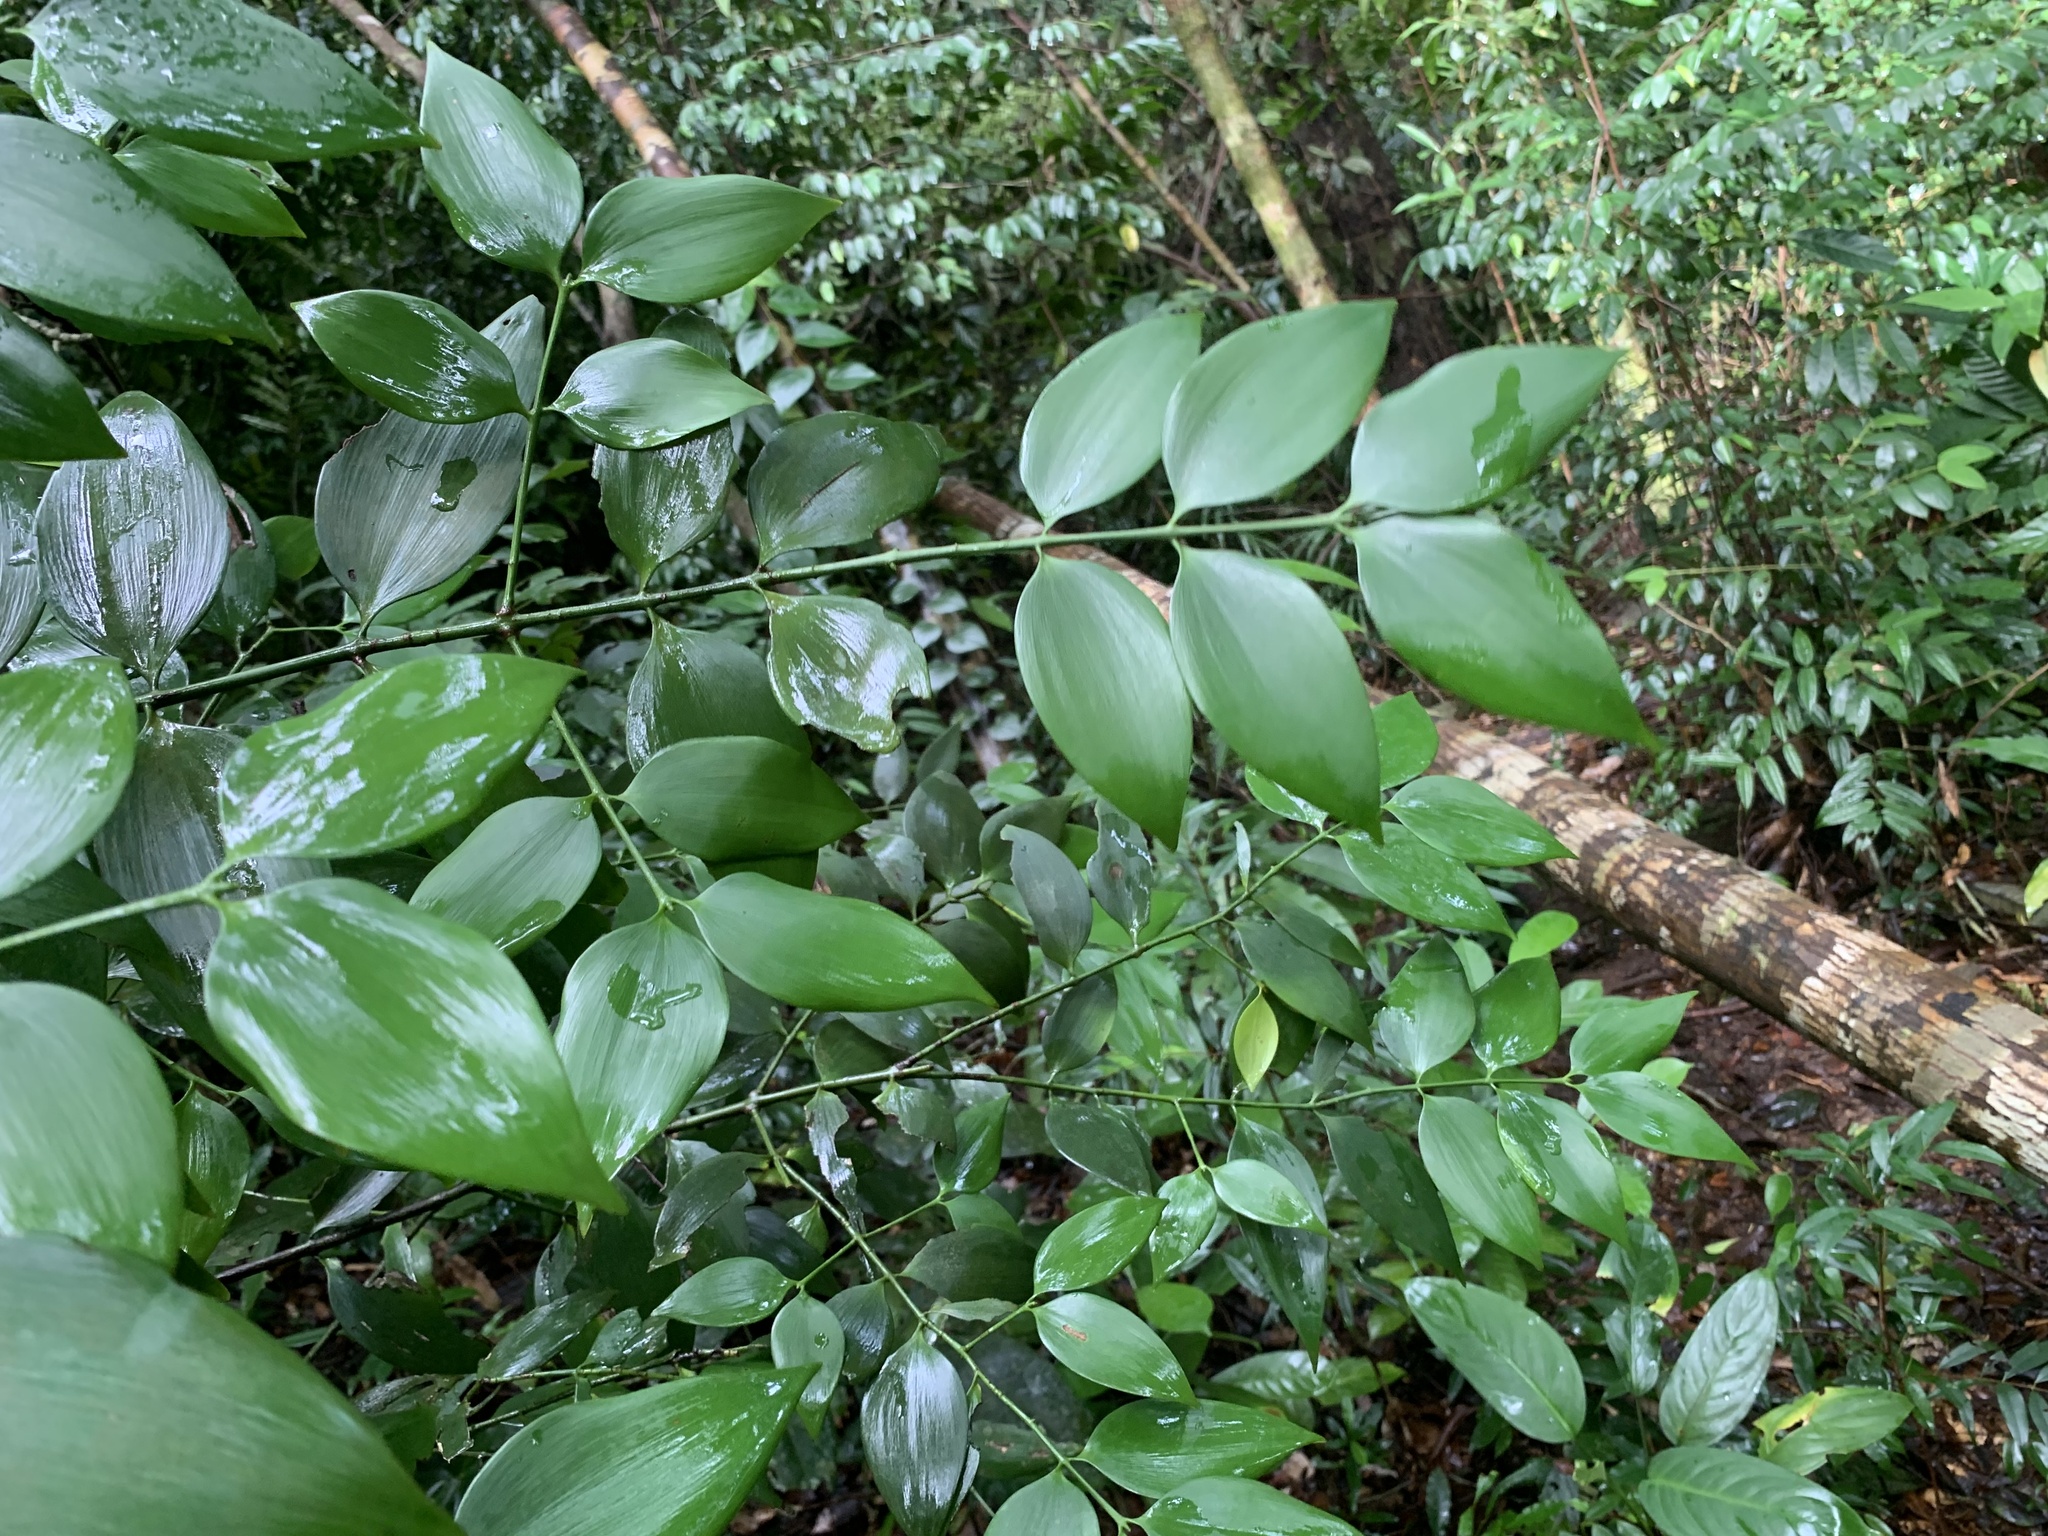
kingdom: Plantae
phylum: Tracheophyta
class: Pinopsida
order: Pinales
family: Podocarpaceae
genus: Nageia
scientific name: Nageia wallichiana
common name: Brown's-pine
